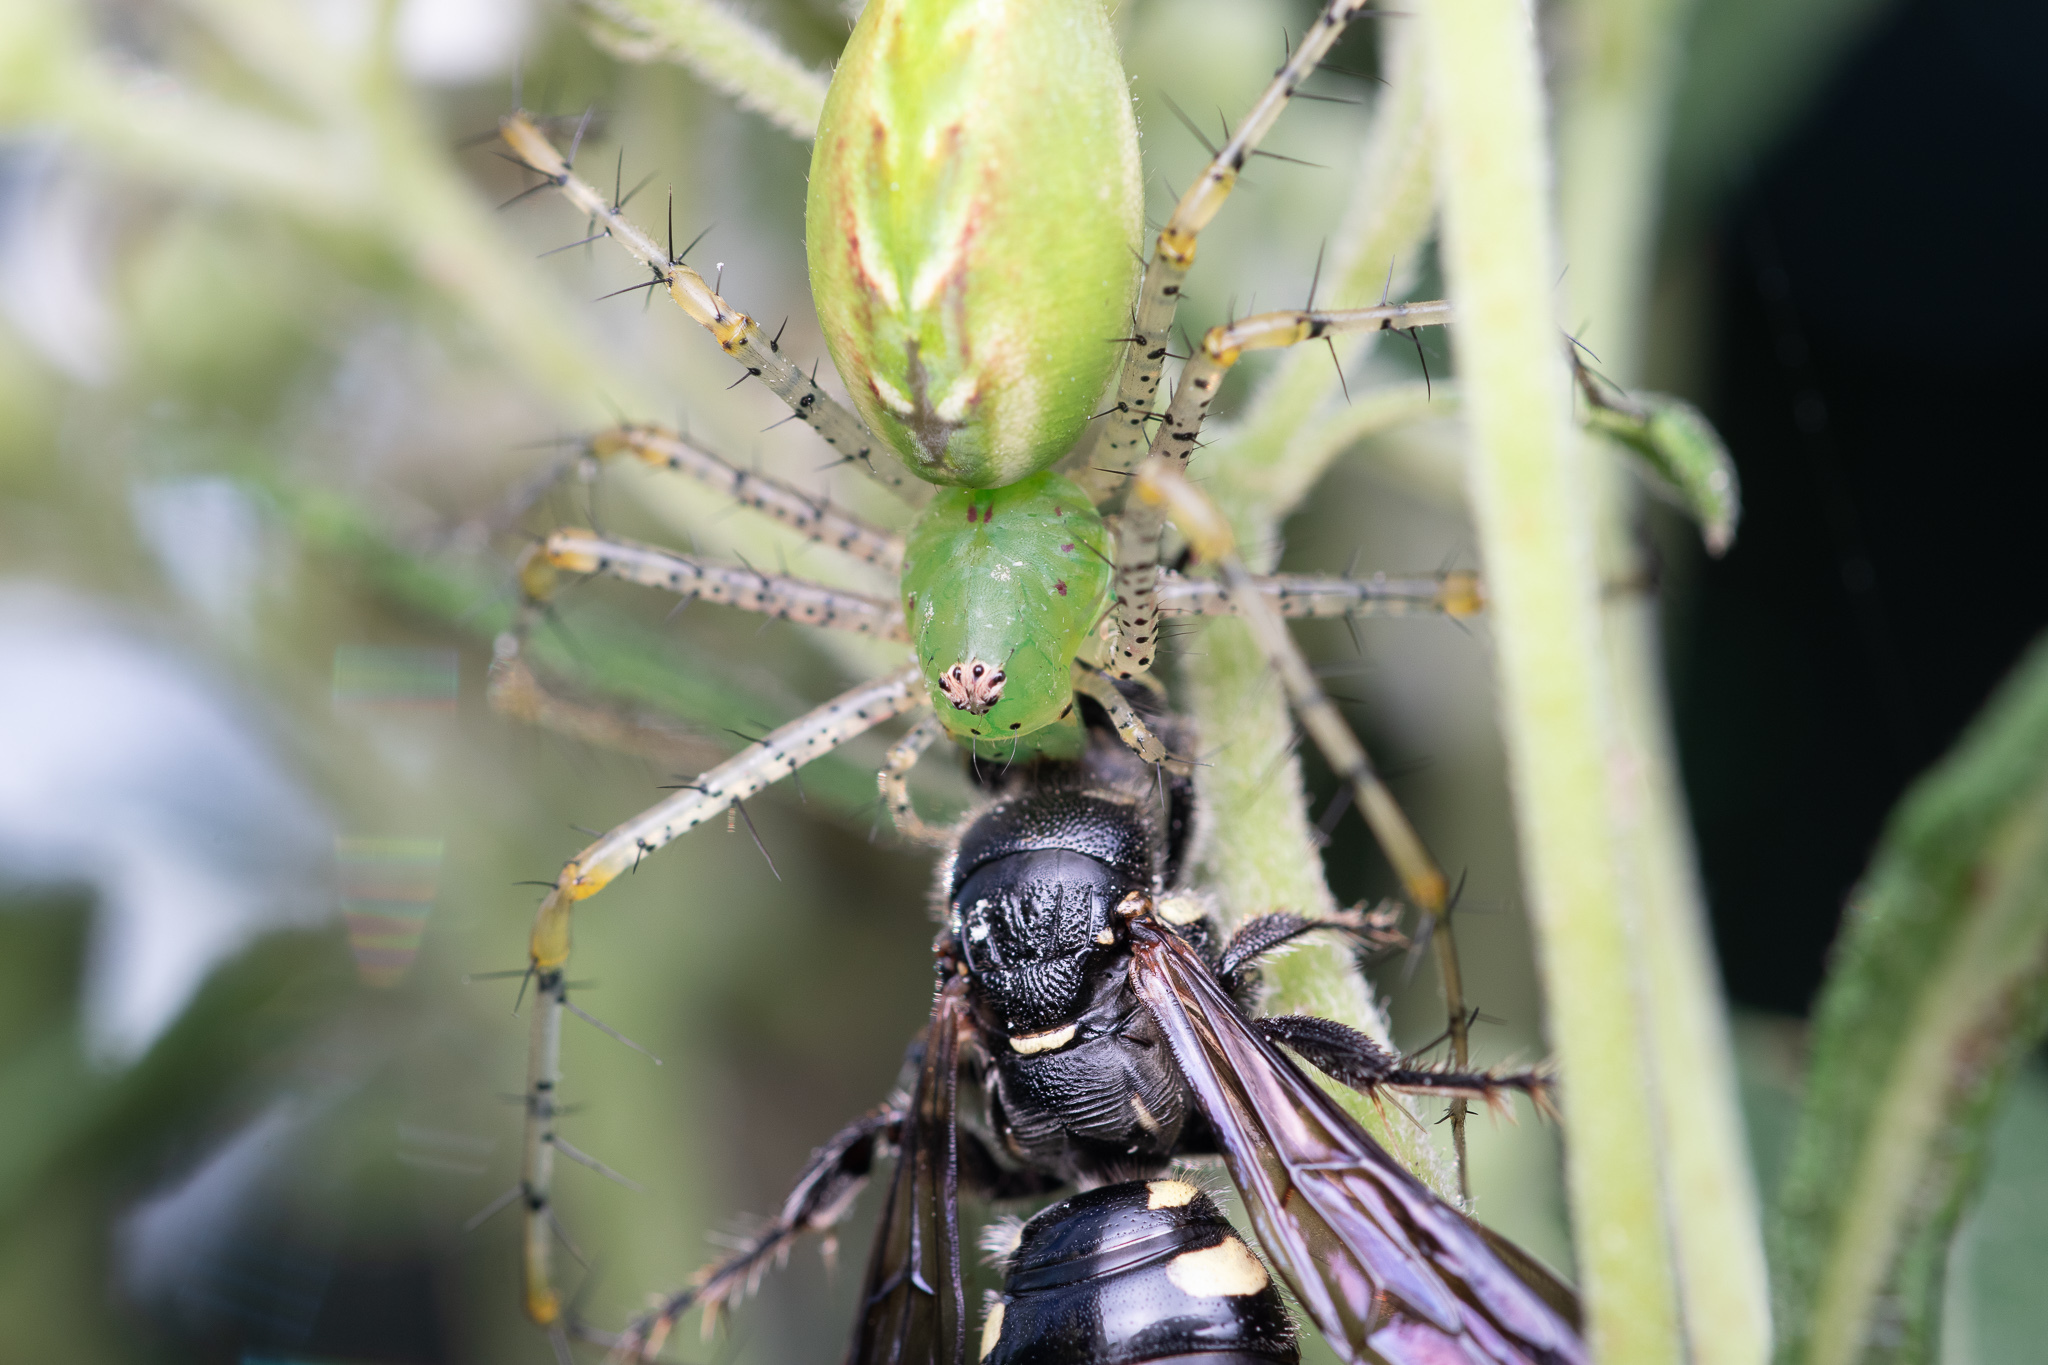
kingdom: Animalia
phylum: Arthropoda
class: Arachnida
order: Araneae
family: Oxyopidae
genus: Peucetia
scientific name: Peucetia viridans
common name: Lynx spiders
